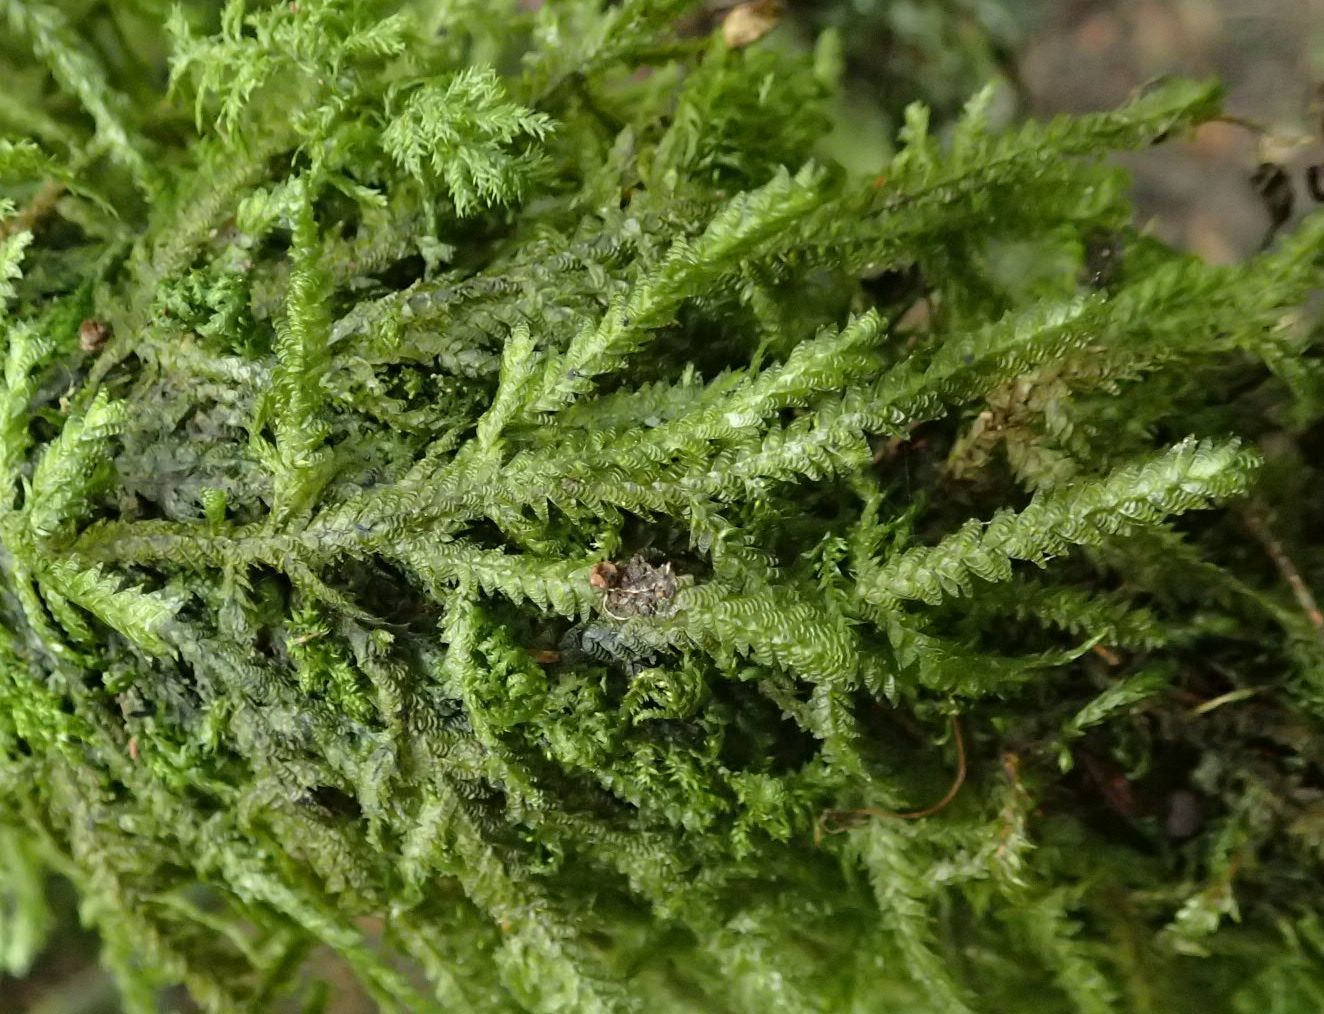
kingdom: Plantae
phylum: Bryophyta
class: Bryopsida
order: Hypnales
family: Neckeraceae
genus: Alleniella
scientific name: Alleniella hymenodonta
